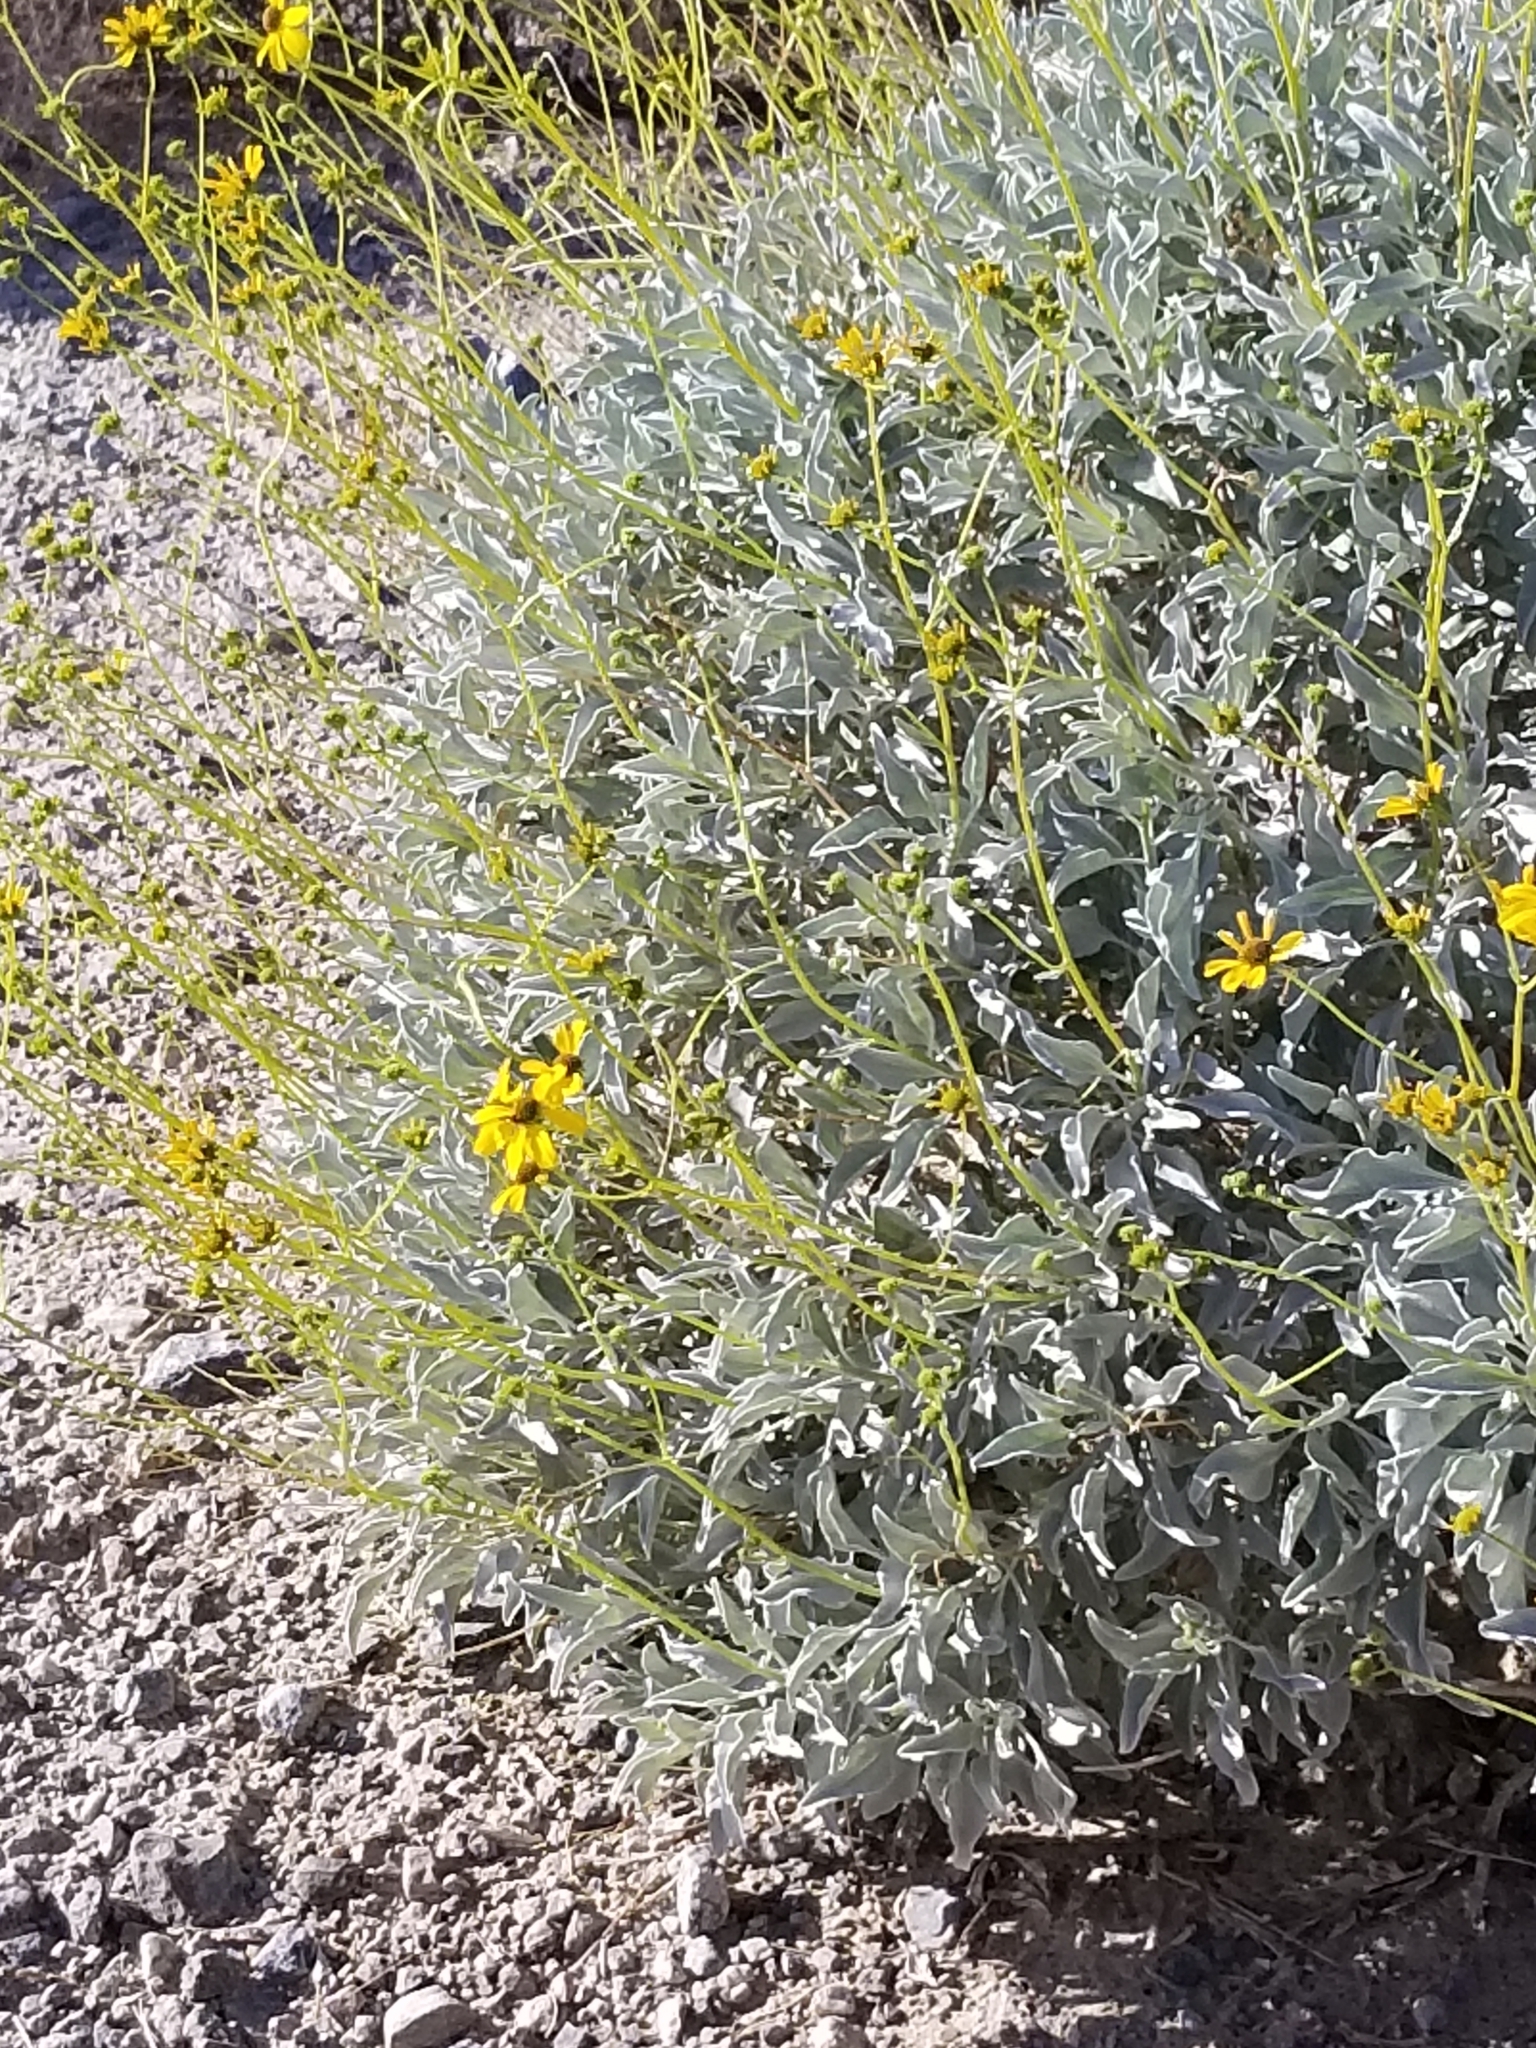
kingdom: Plantae
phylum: Tracheophyta
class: Magnoliopsida
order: Asterales
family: Asteraceae
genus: Encelia
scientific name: Encelia farinosa
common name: Brittlebush
